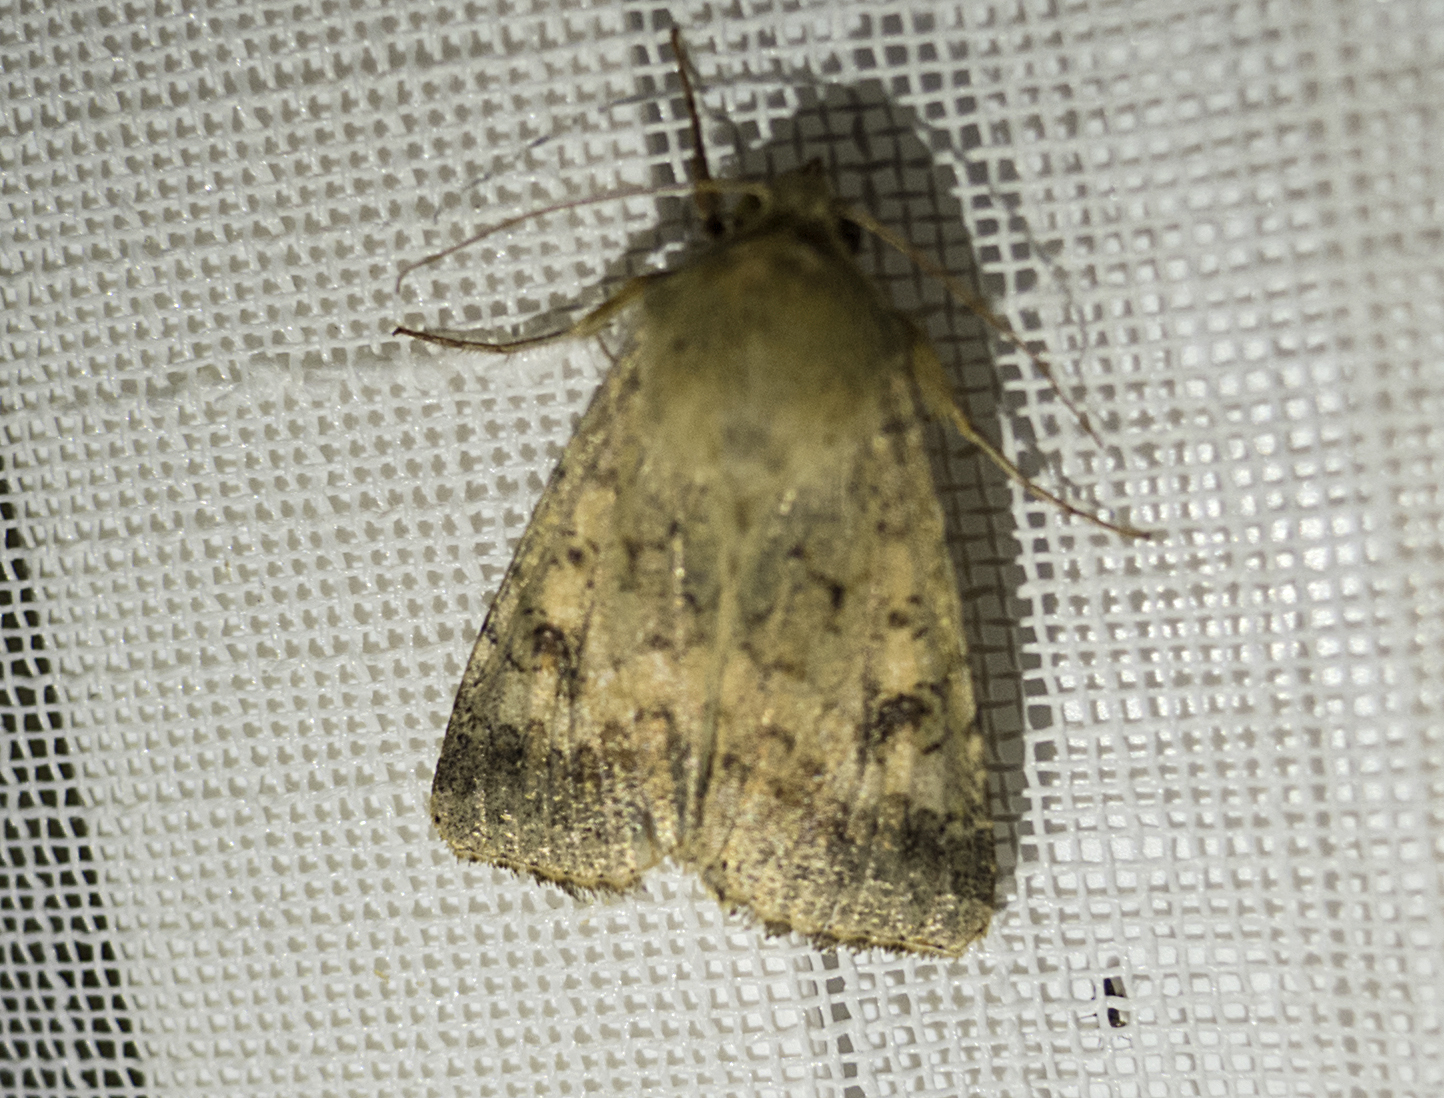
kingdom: Animalia
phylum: Arthropoda
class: Insecta
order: Lepidoptera
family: Noctuidae
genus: Helicoverpa
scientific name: Helicoverpa armigera
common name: Cotton bollworm
